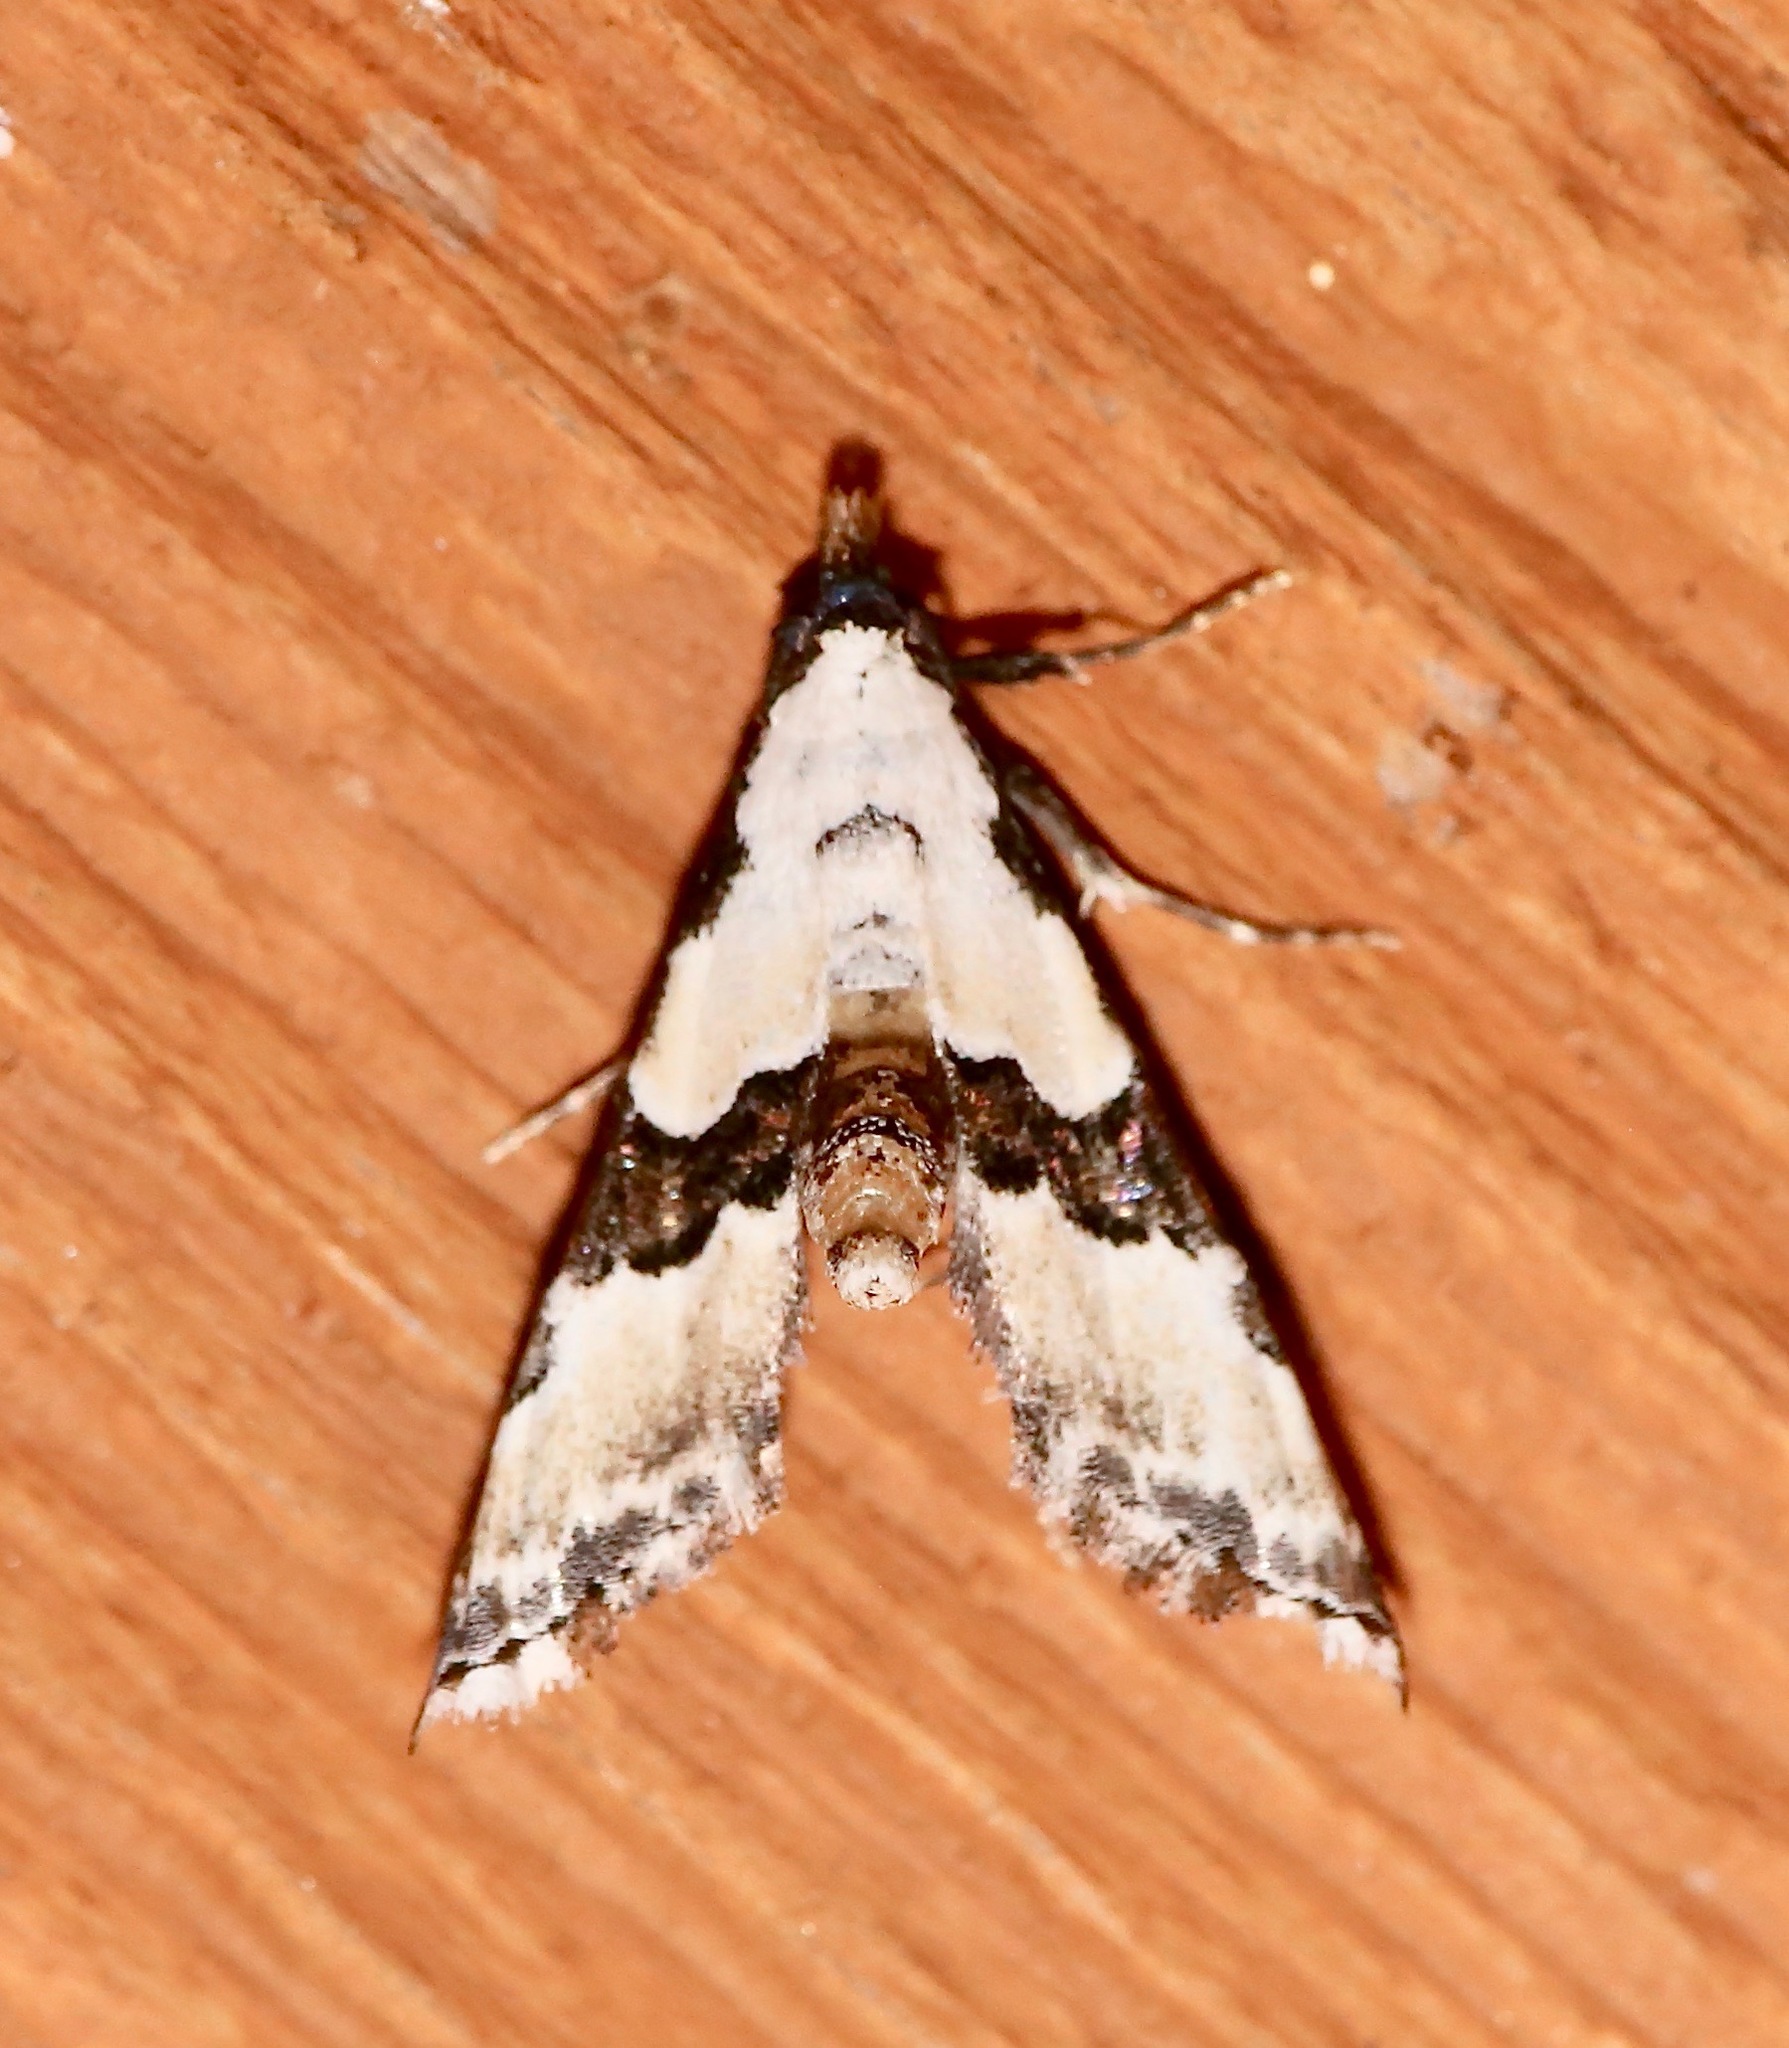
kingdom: Animalia
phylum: Arthropoda
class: Insecta
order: Lepidoptera
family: Noctuidae
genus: Nigetia
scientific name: Nigetia formosalis
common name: Thin-winged owlet
